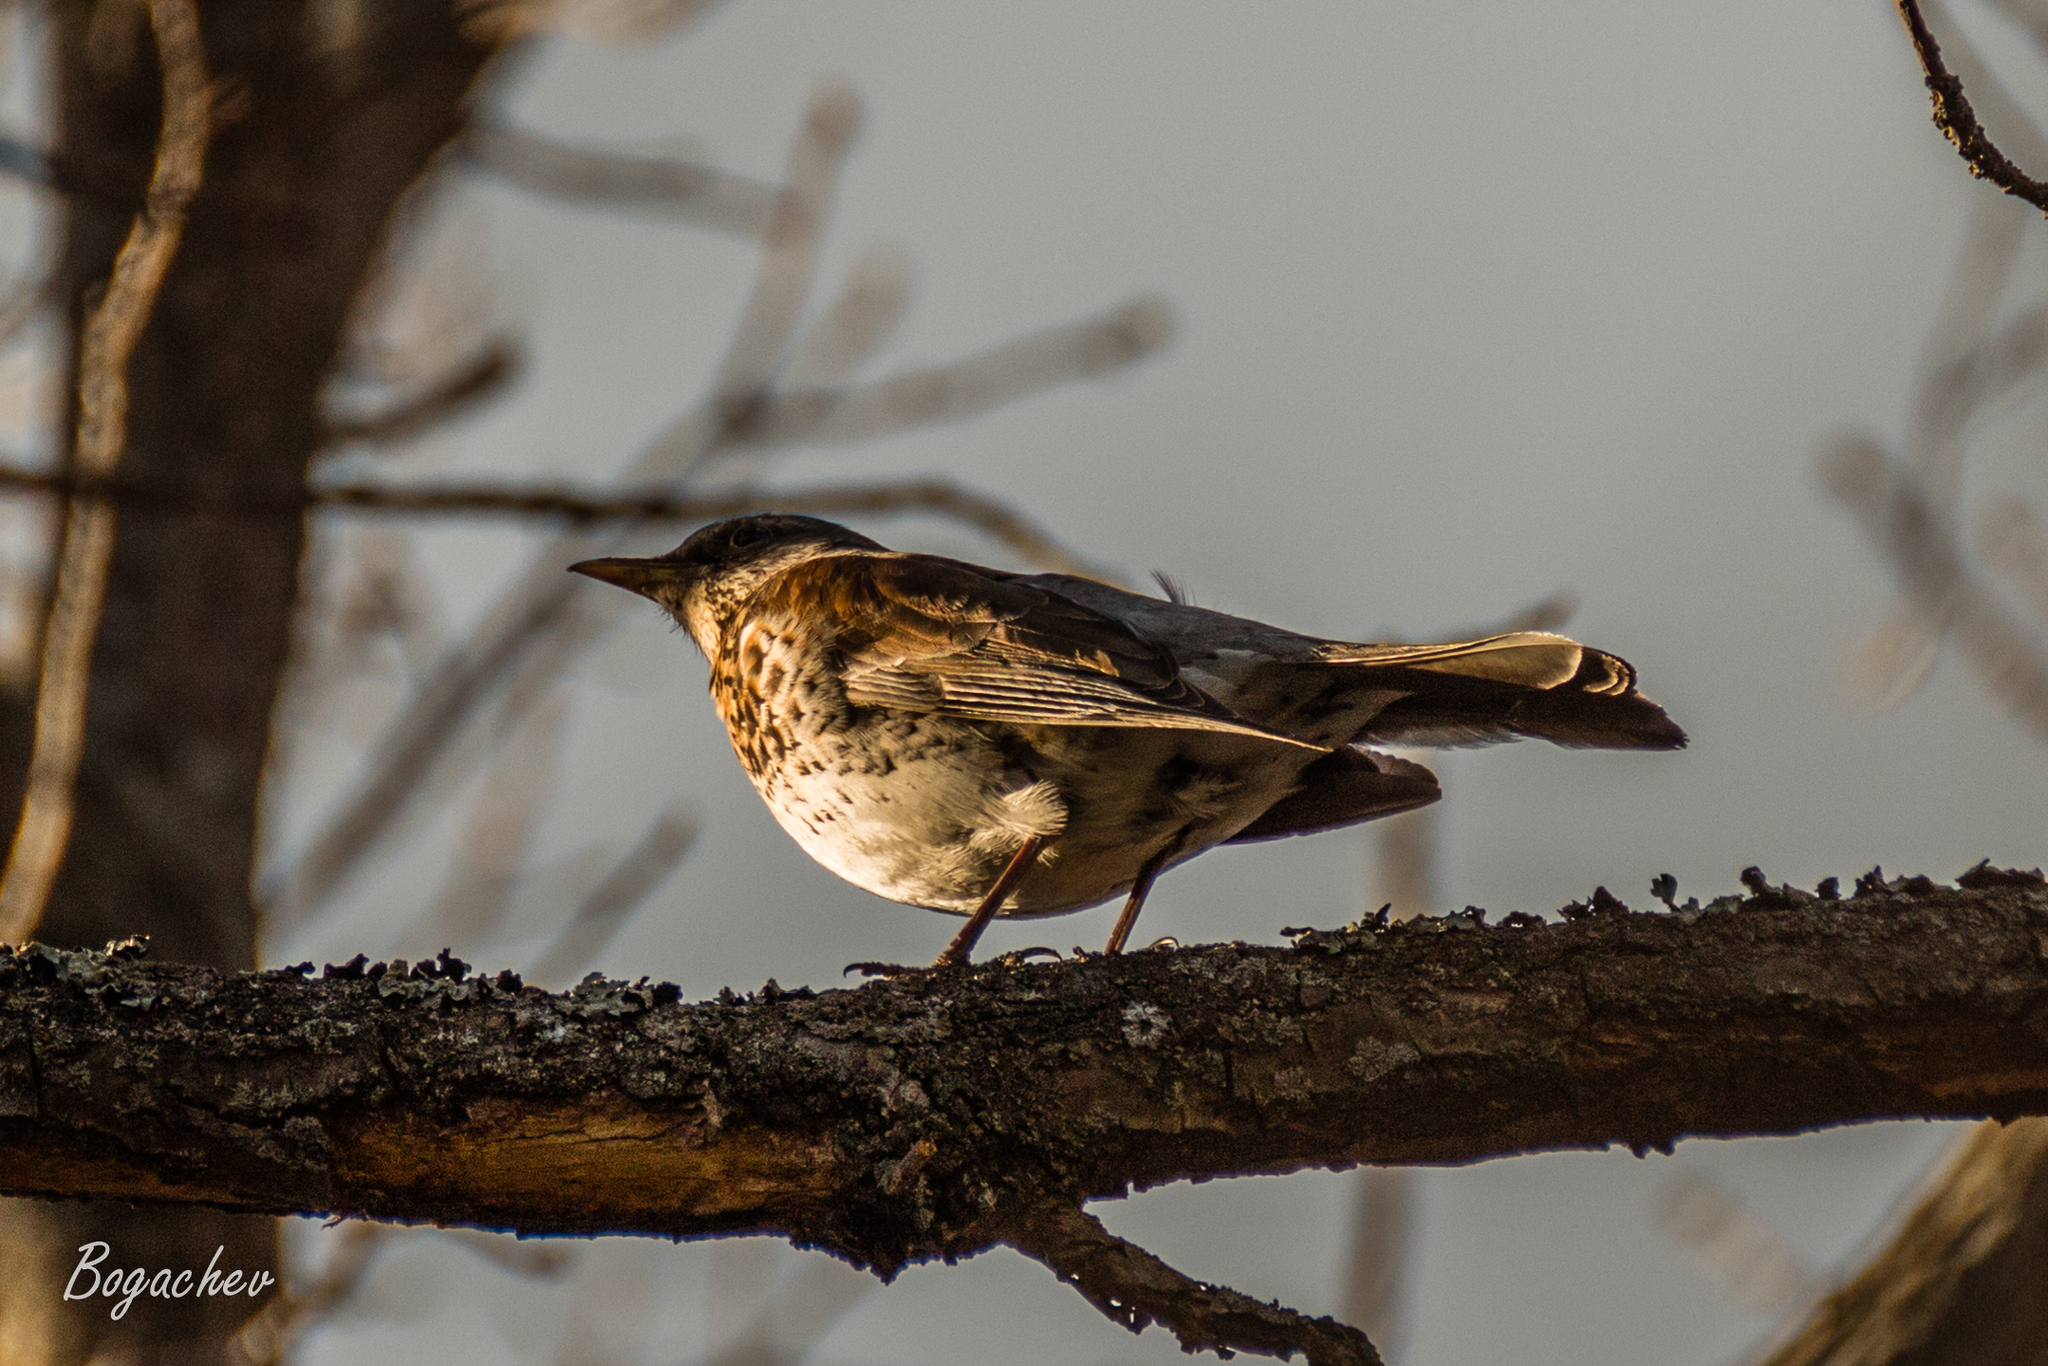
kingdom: Animalia
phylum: Chordata
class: Aves
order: Passeriformes
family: Turdidae
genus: Turdus
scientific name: Turdus pilaris
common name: Fieldfare
